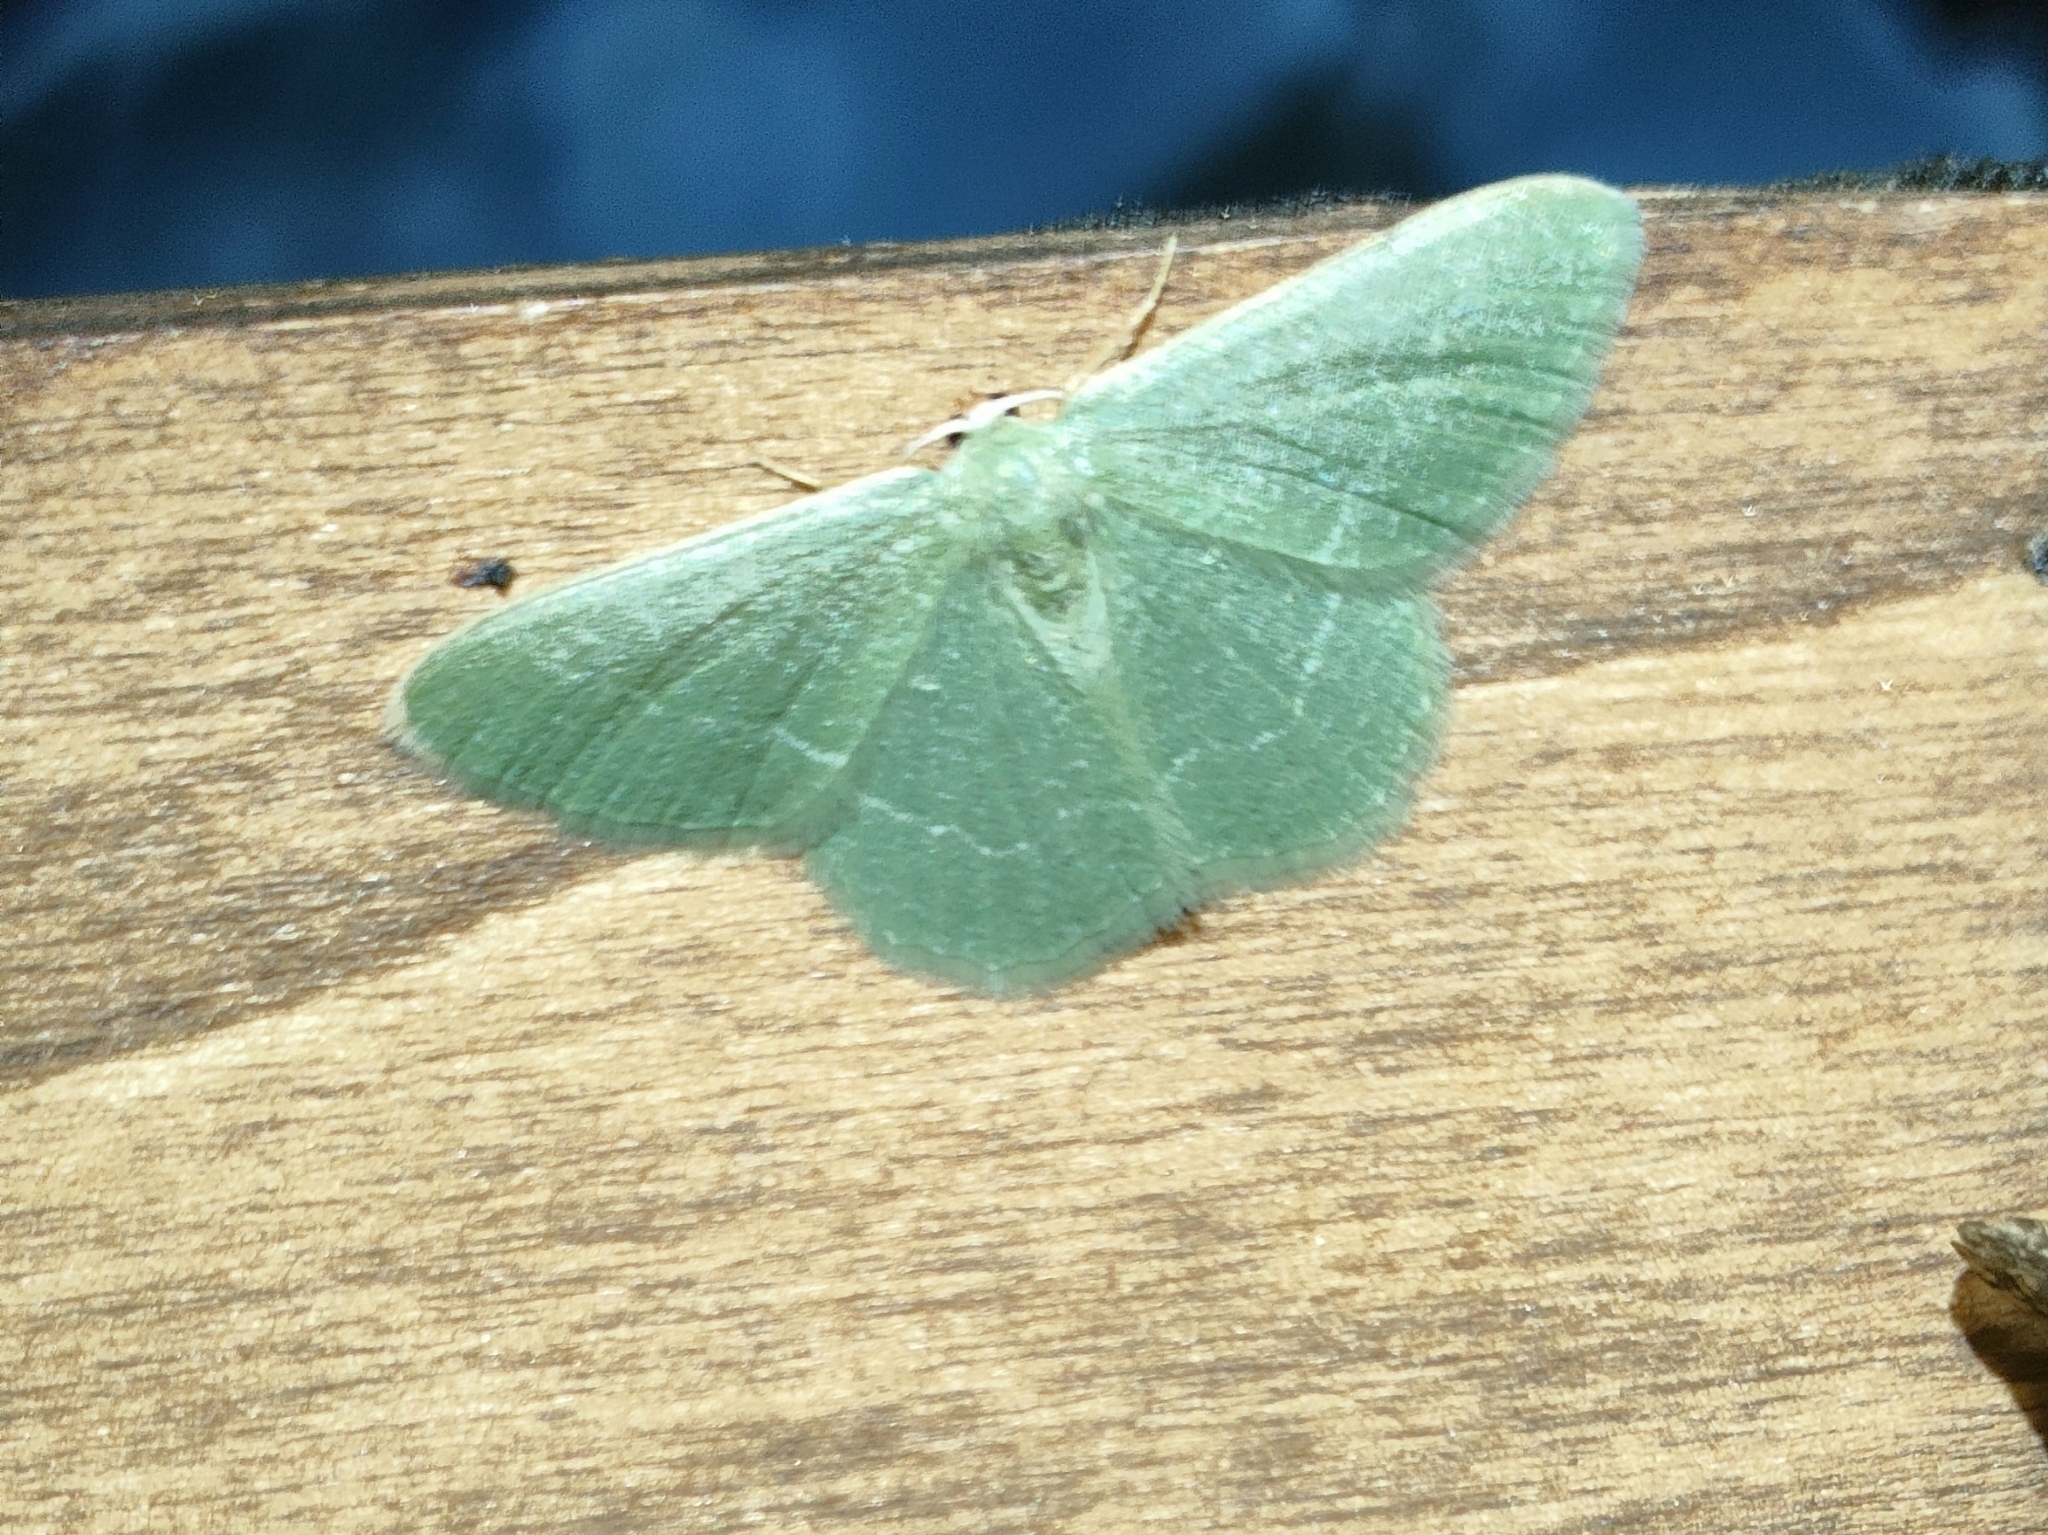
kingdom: Animalia
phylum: Arthropoda
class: Insecta
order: Lepidoptera
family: Geometridae
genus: Chlorissa
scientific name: Chlorissa etruscaria
